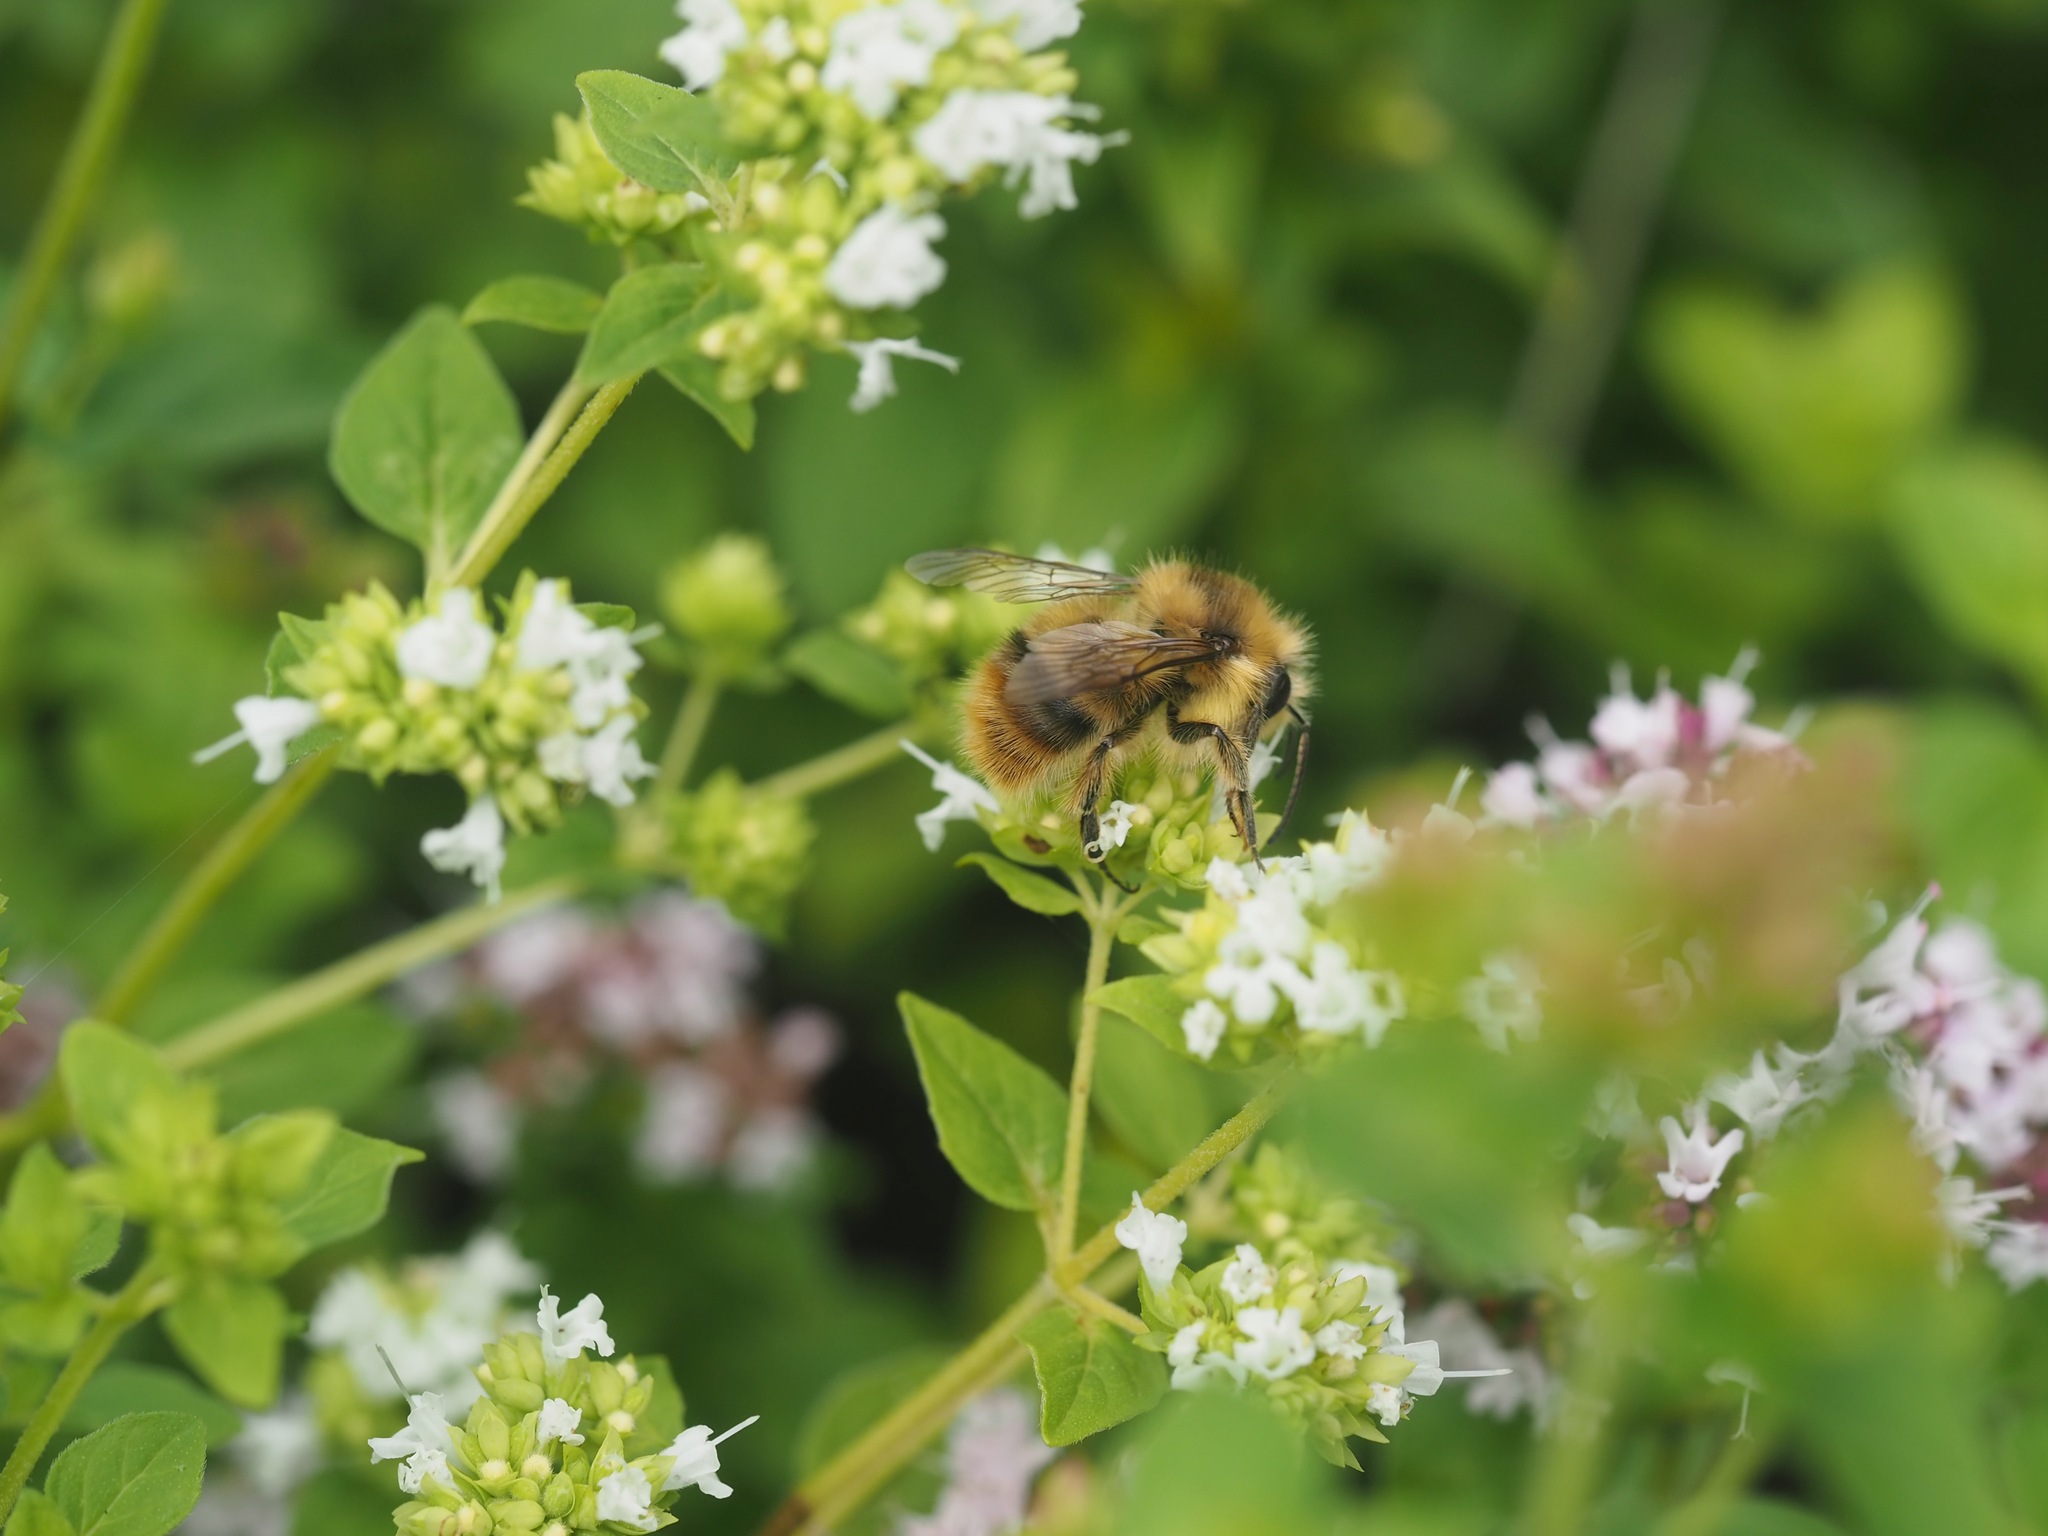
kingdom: Animalia
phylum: Arthropoda
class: Insecta
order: Hymenoptera
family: Apidae
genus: Bombus
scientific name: Bombus mixtus
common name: Fuzzy-horned bumble bee
